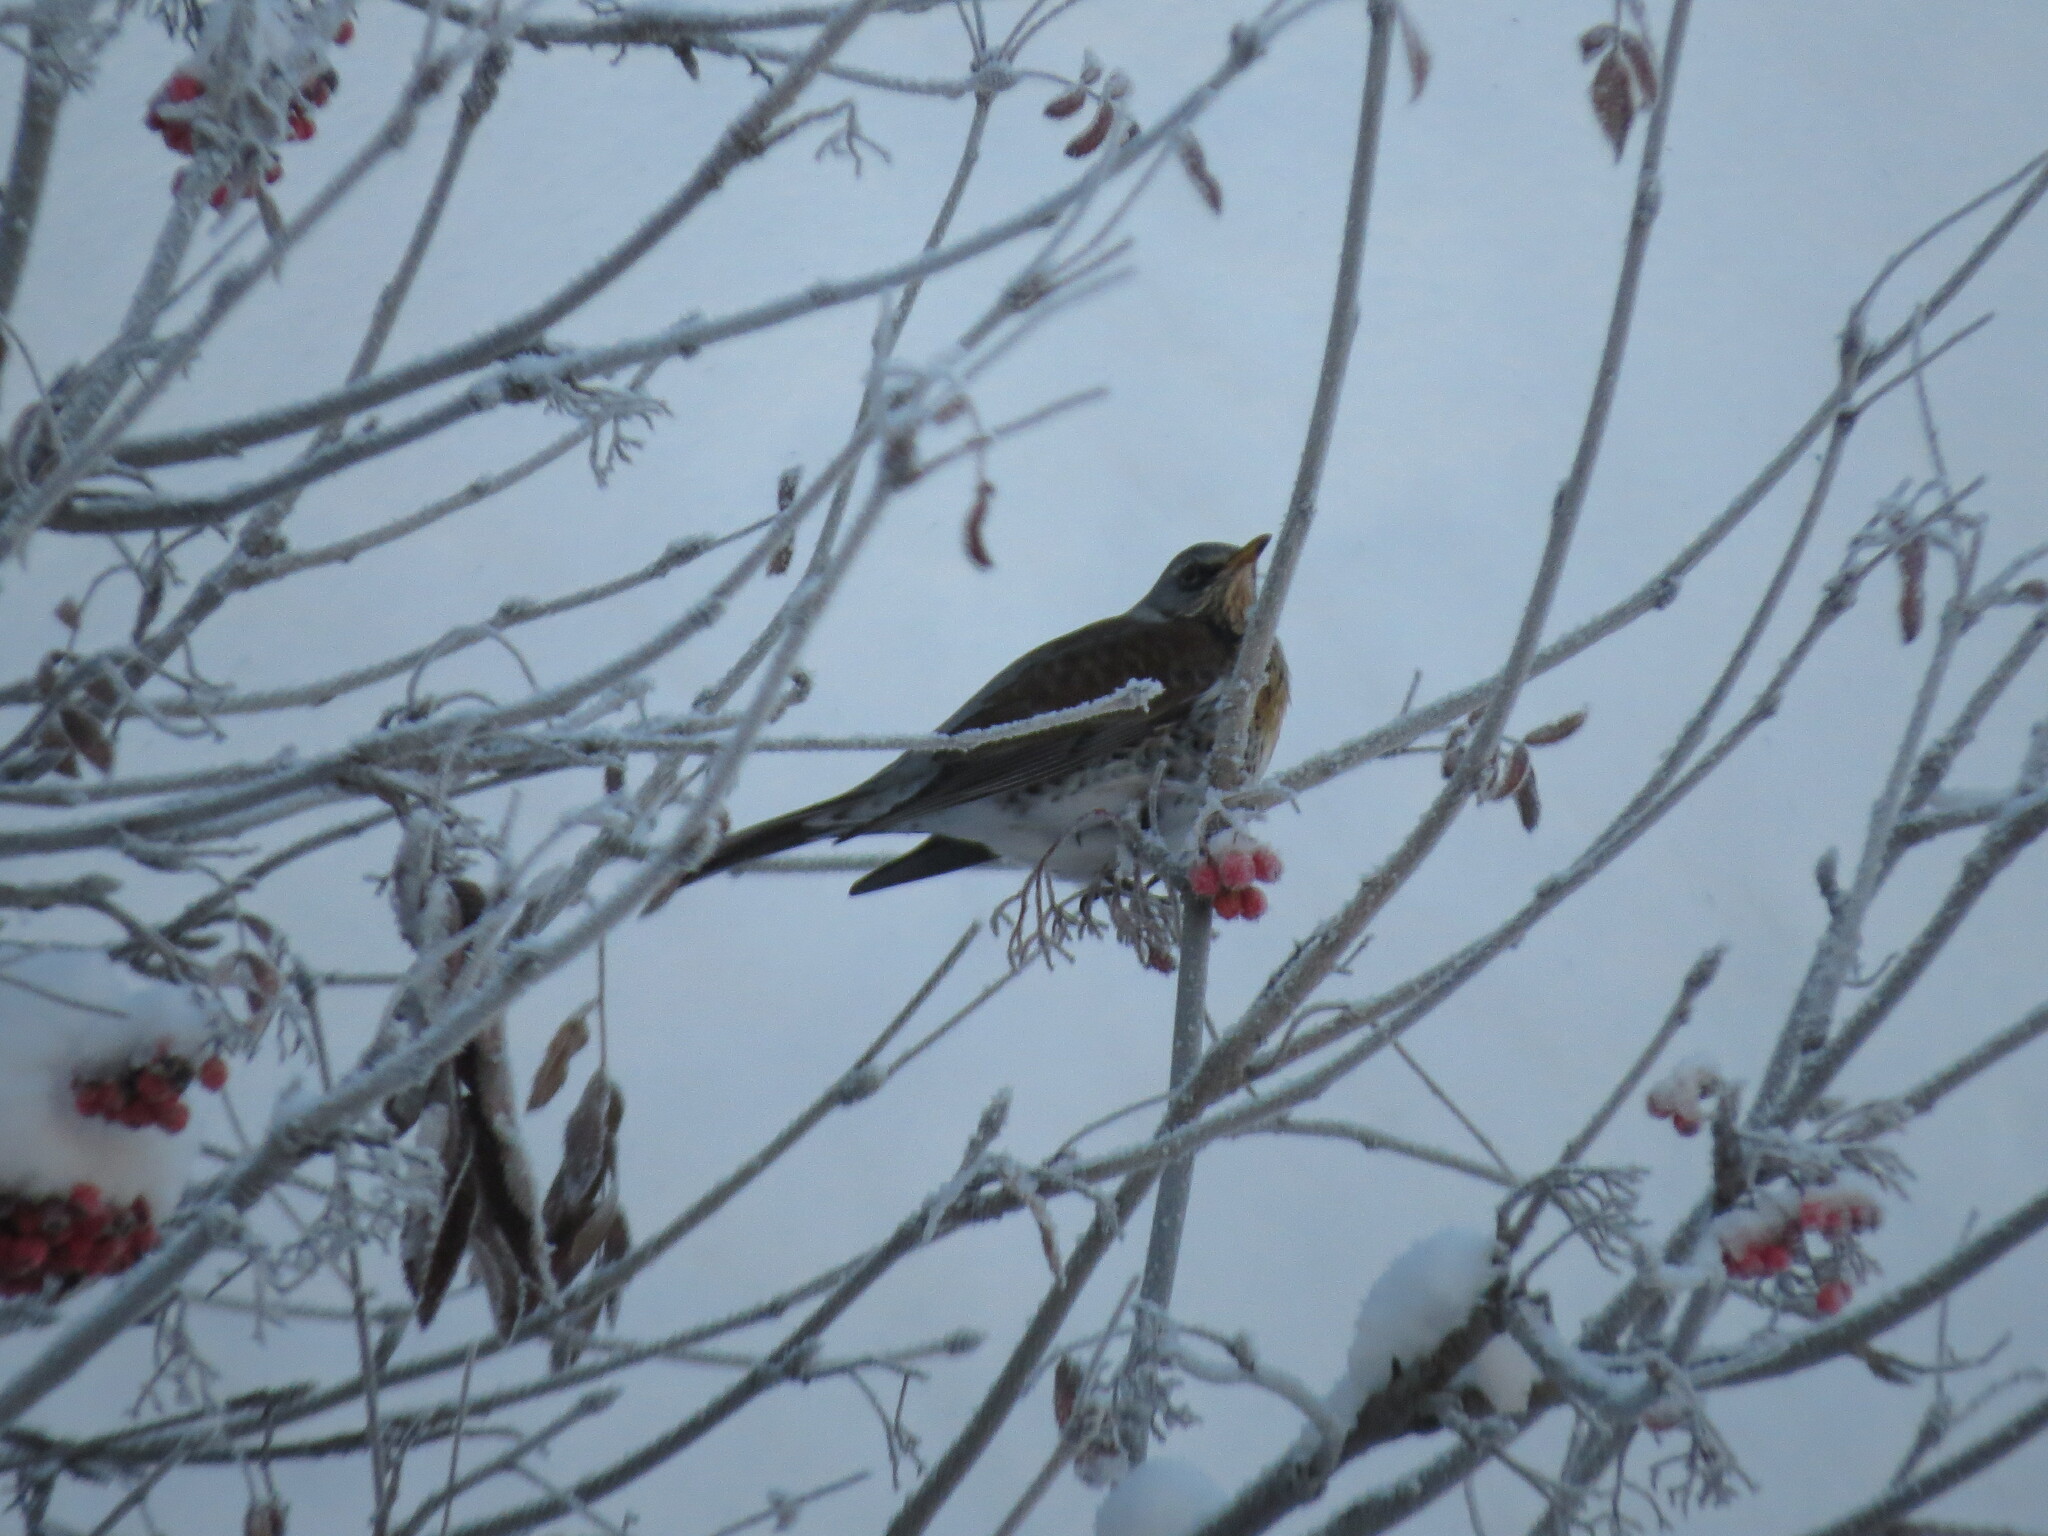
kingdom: Animalia
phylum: Chordata
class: Aves
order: Passeriformes
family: Turdidae
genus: Turdus
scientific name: Turdus pilaris
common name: Fieldfare
